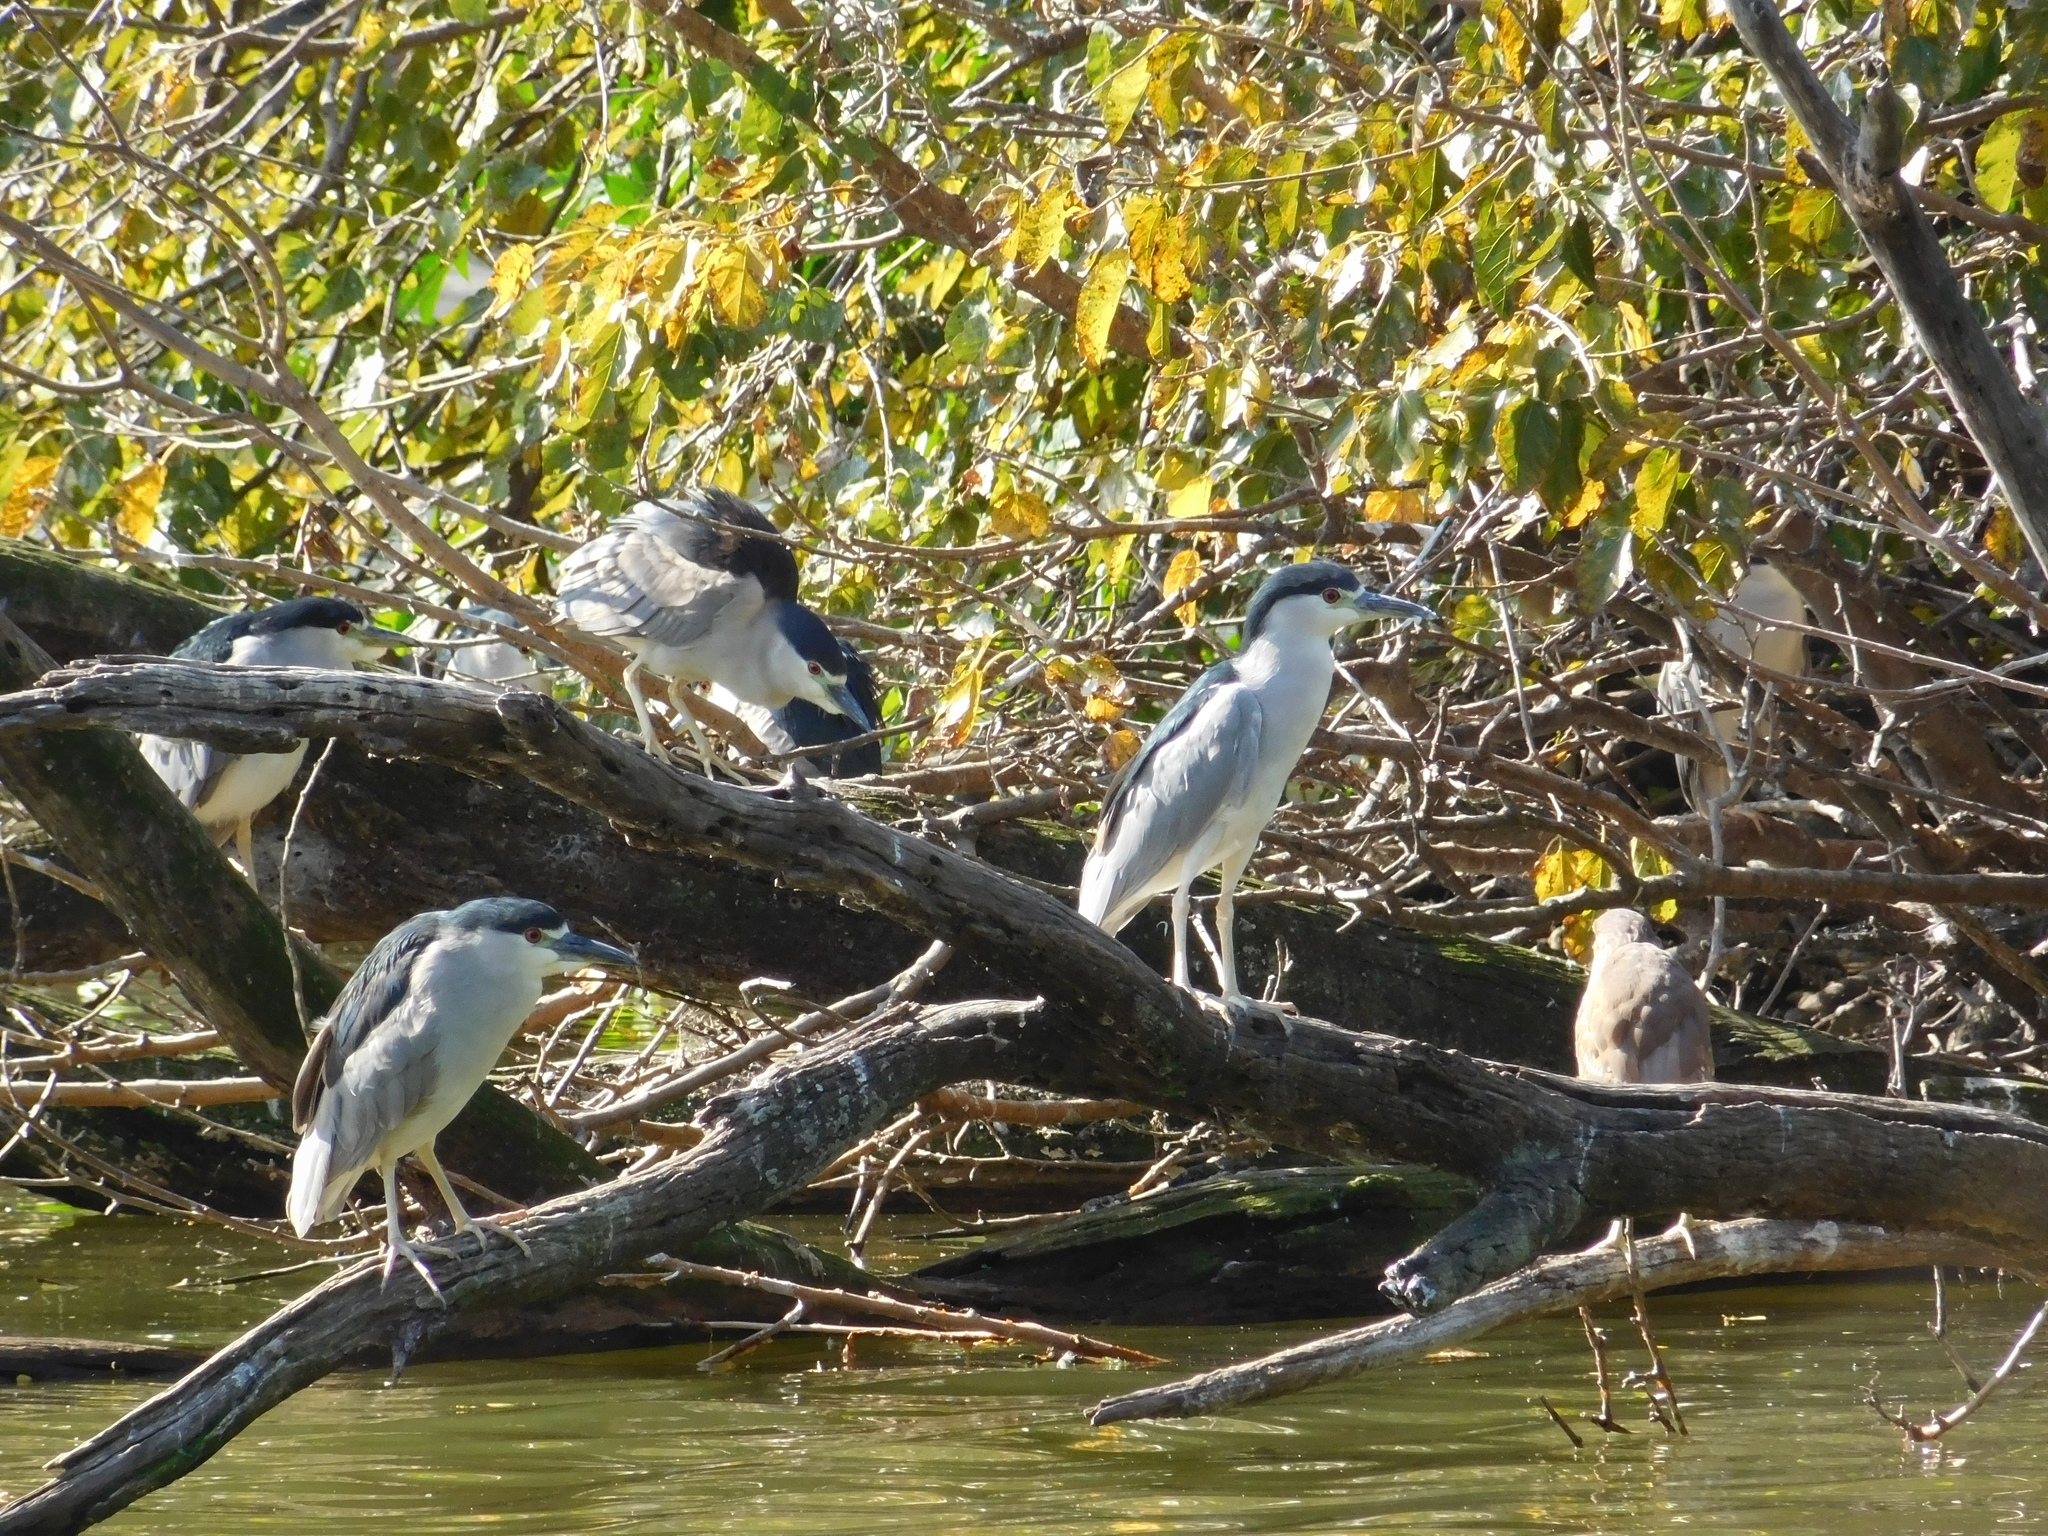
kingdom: Animalia
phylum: Chordata
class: Aves
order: Pelecaniformes
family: Ardeidae
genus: Nycticorax
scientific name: Nycticorax nycticorax
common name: Black-crowned night heron
